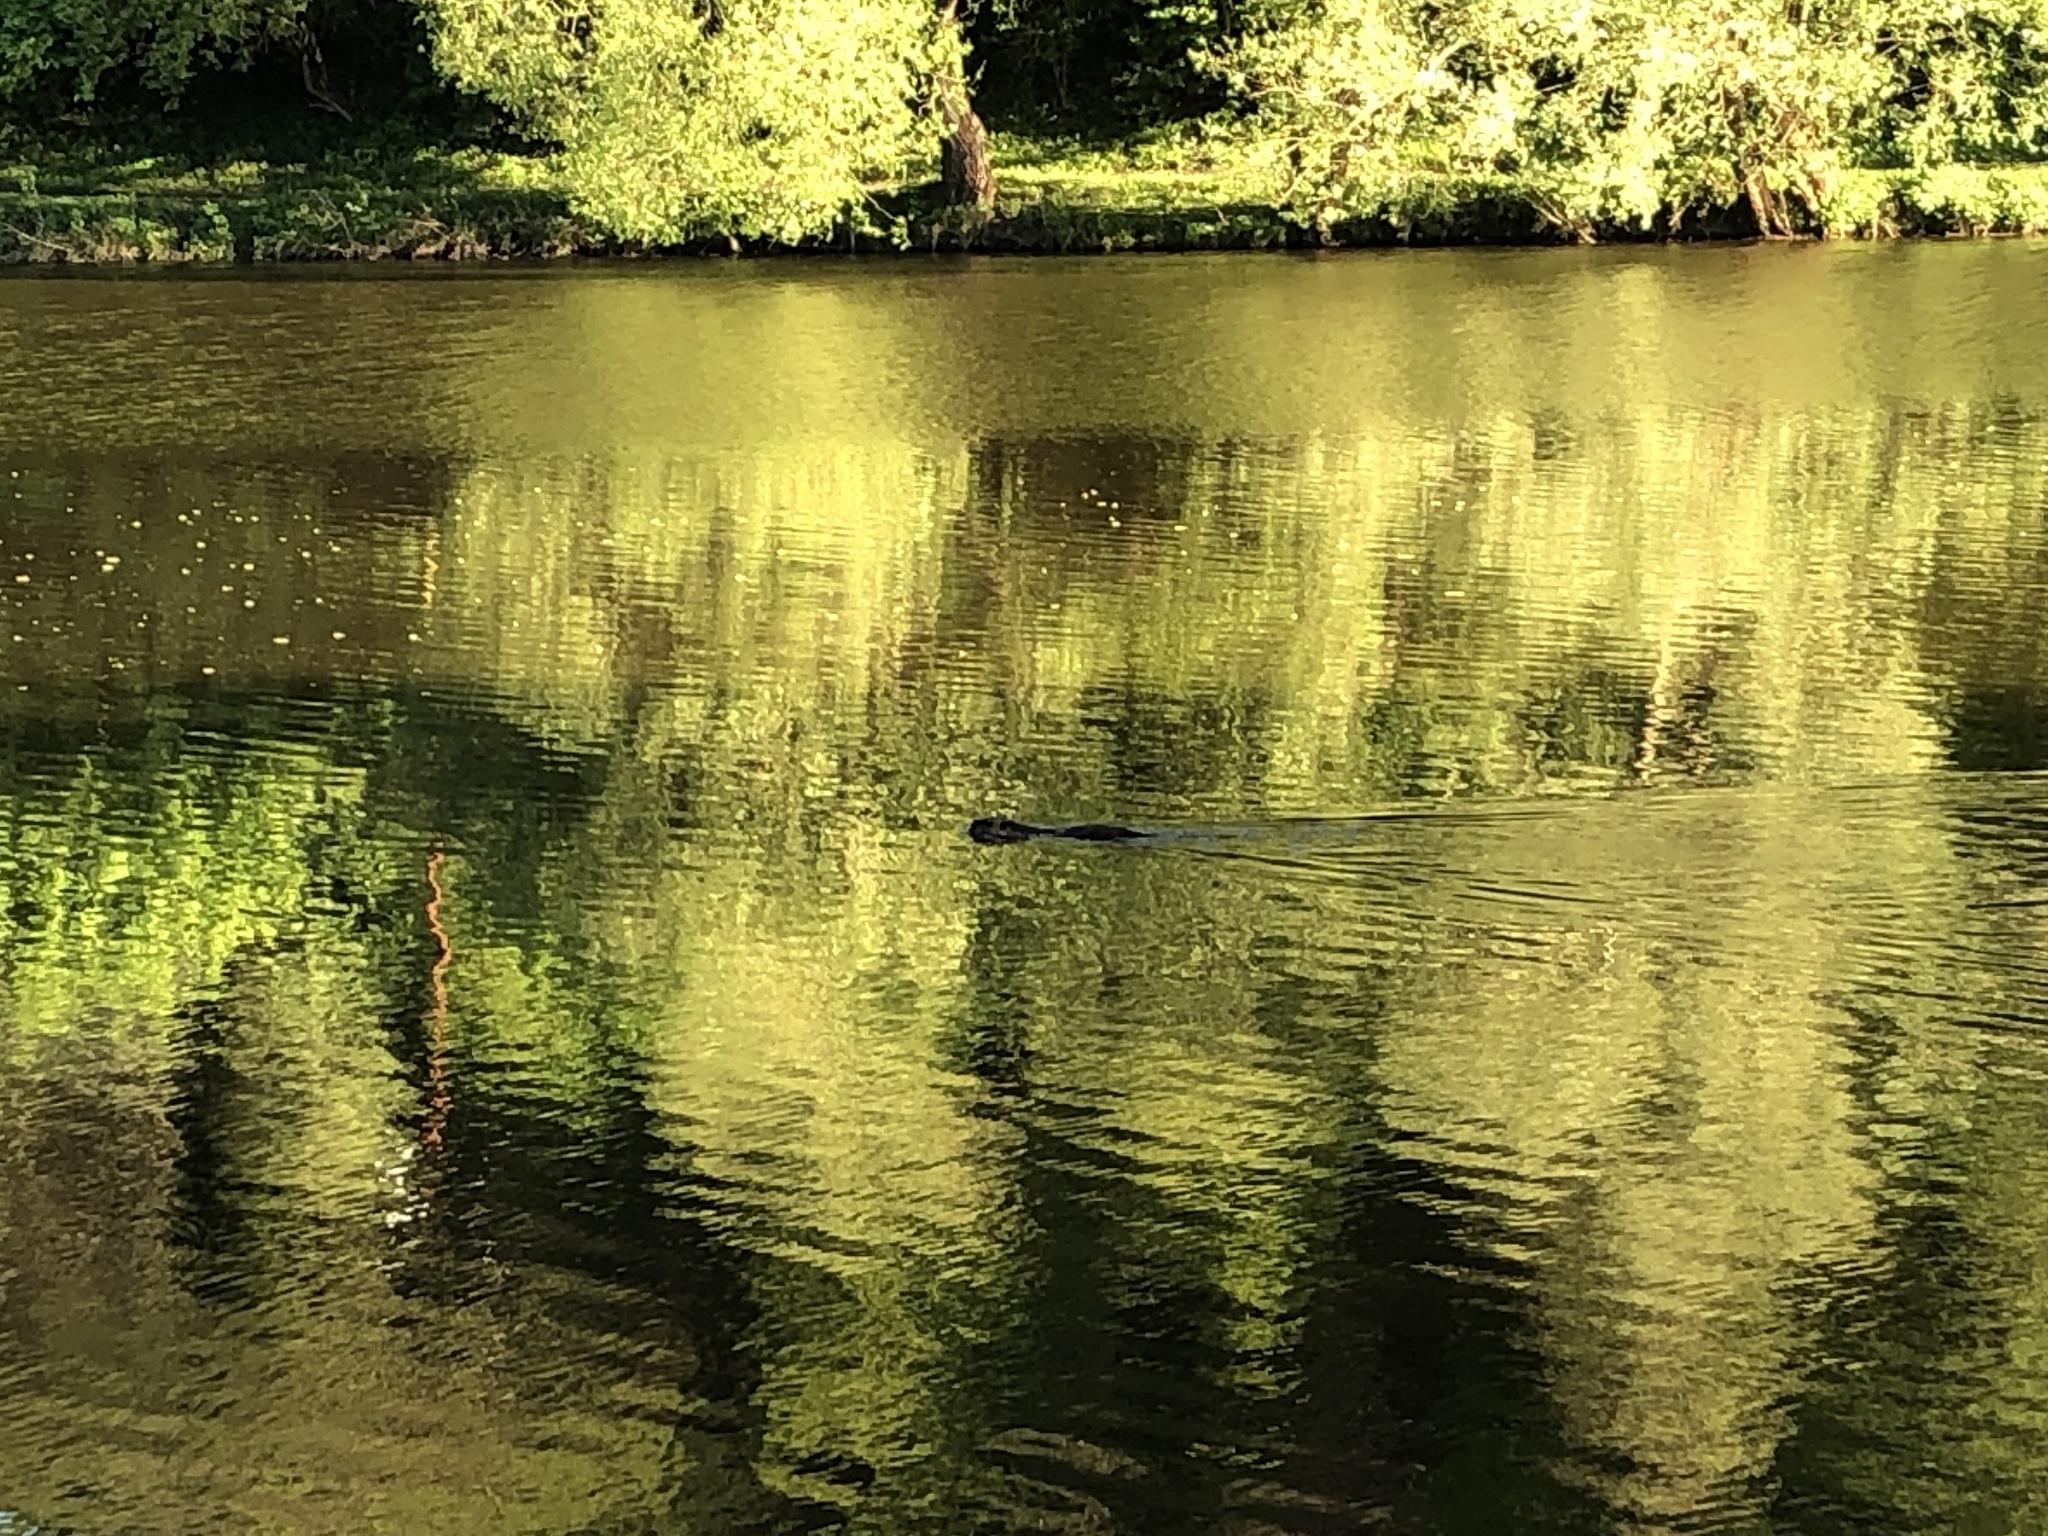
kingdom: Animalia
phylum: Chordata
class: Mammalia
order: Rodentia
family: Myocastoridae
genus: Myocastor
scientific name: Myocastor coypus
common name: Coypu
